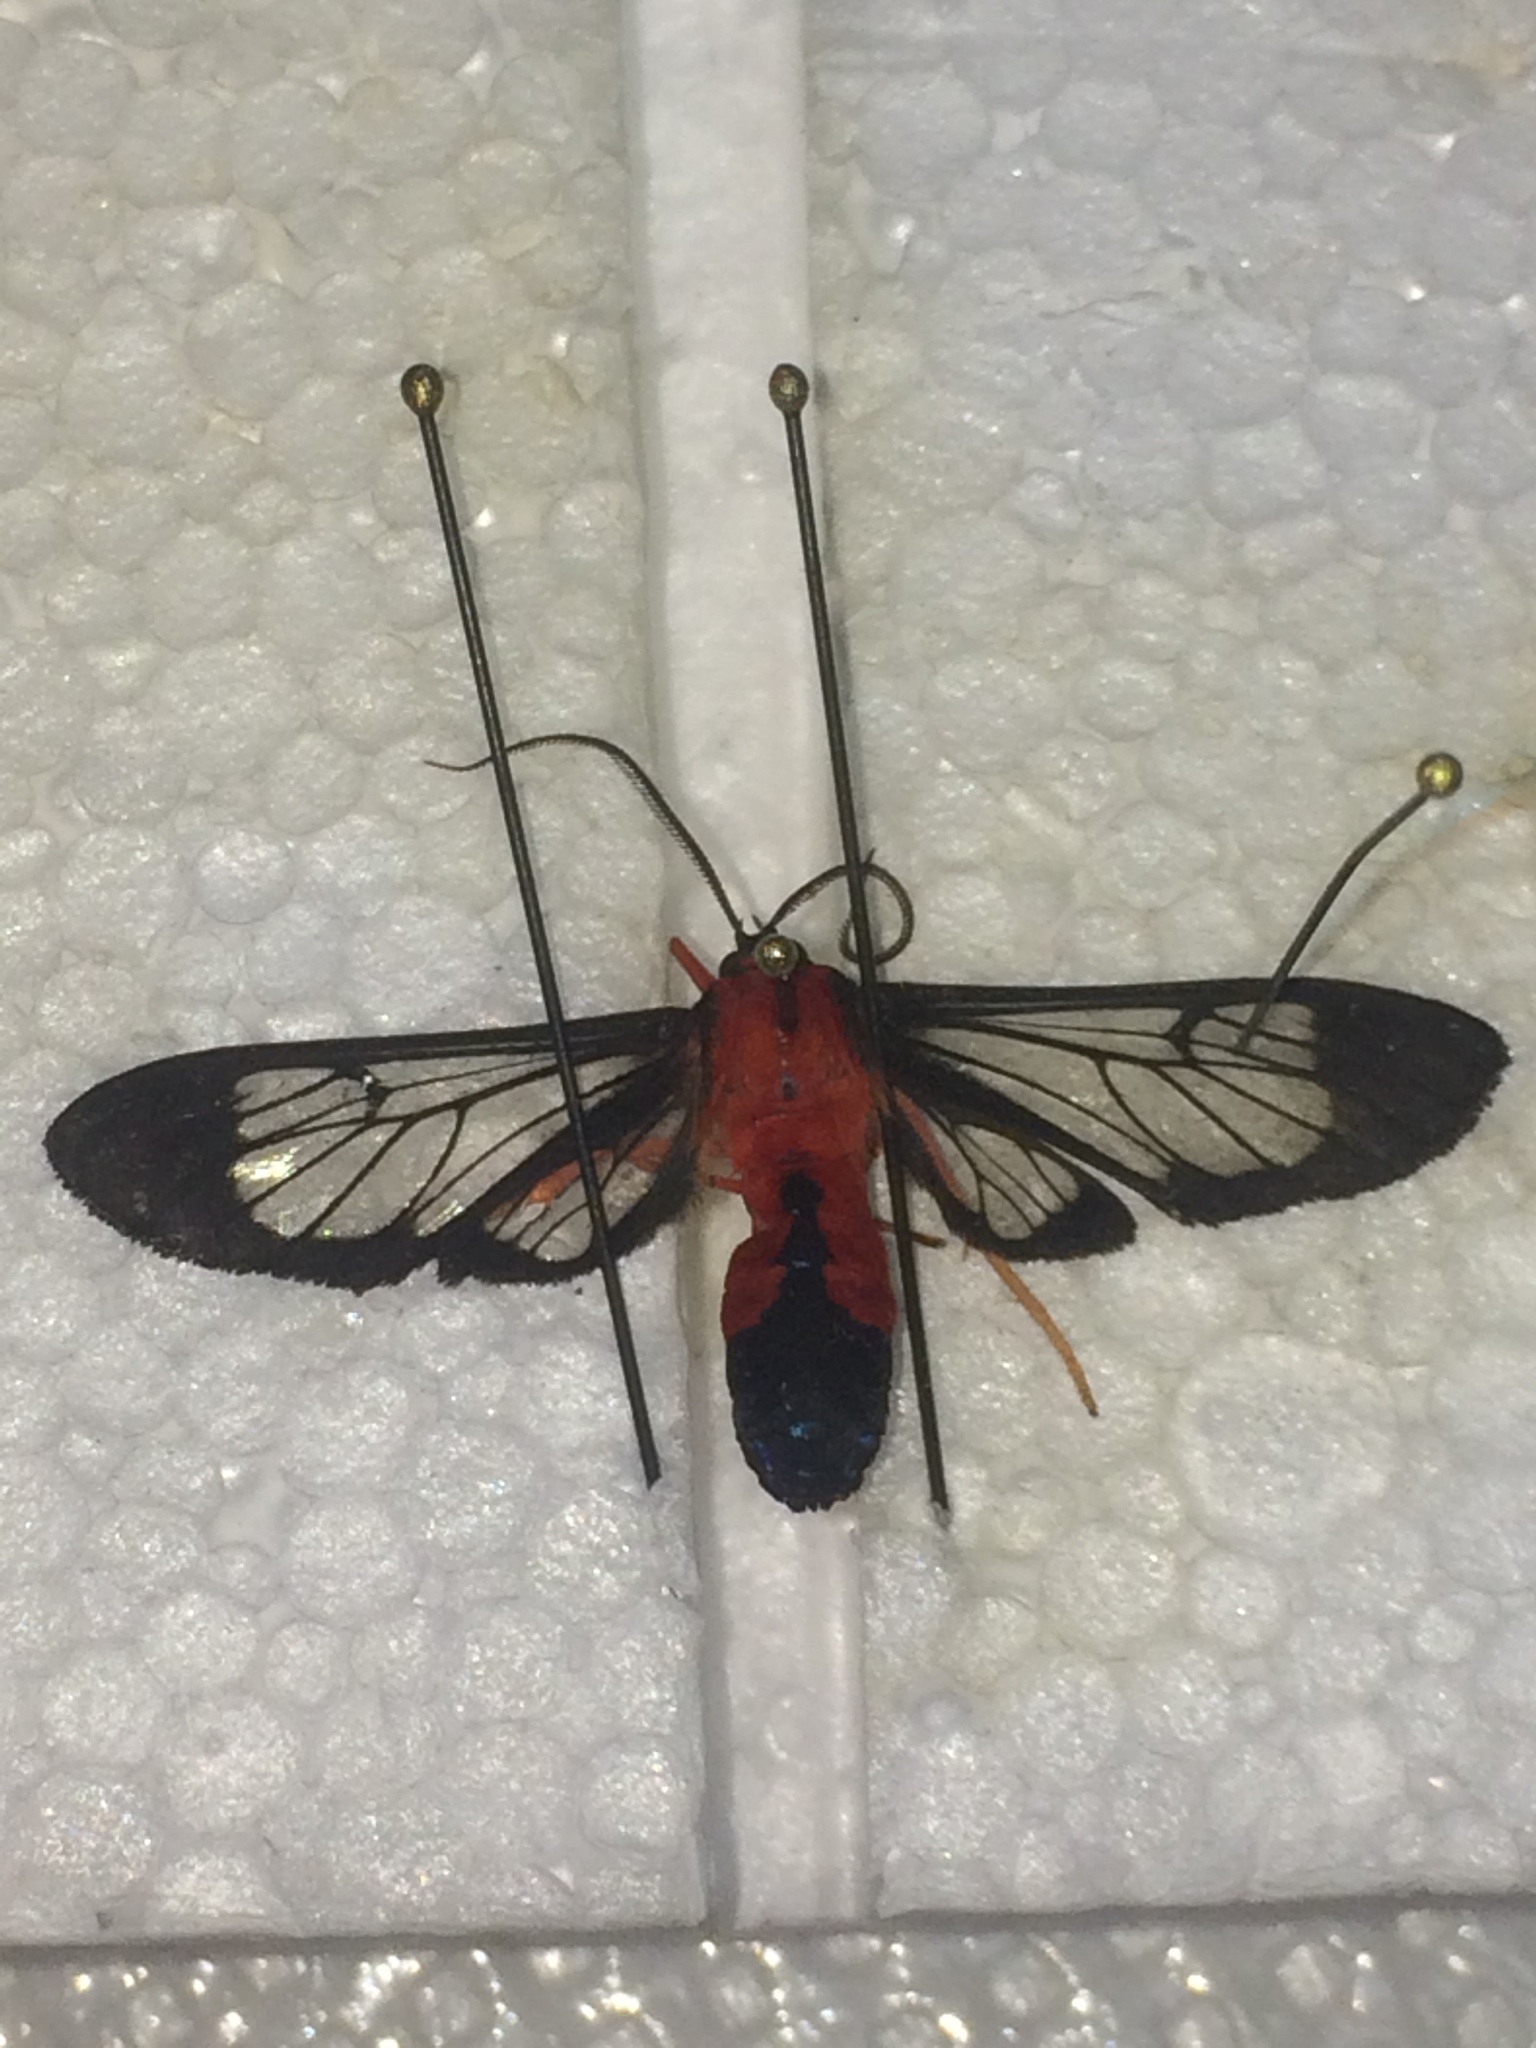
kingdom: Animalia
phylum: Arthropoda
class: Insecta
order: Lepidoptera
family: Erebidae
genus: Cosmosoma
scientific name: Cosmosoma myrodora
